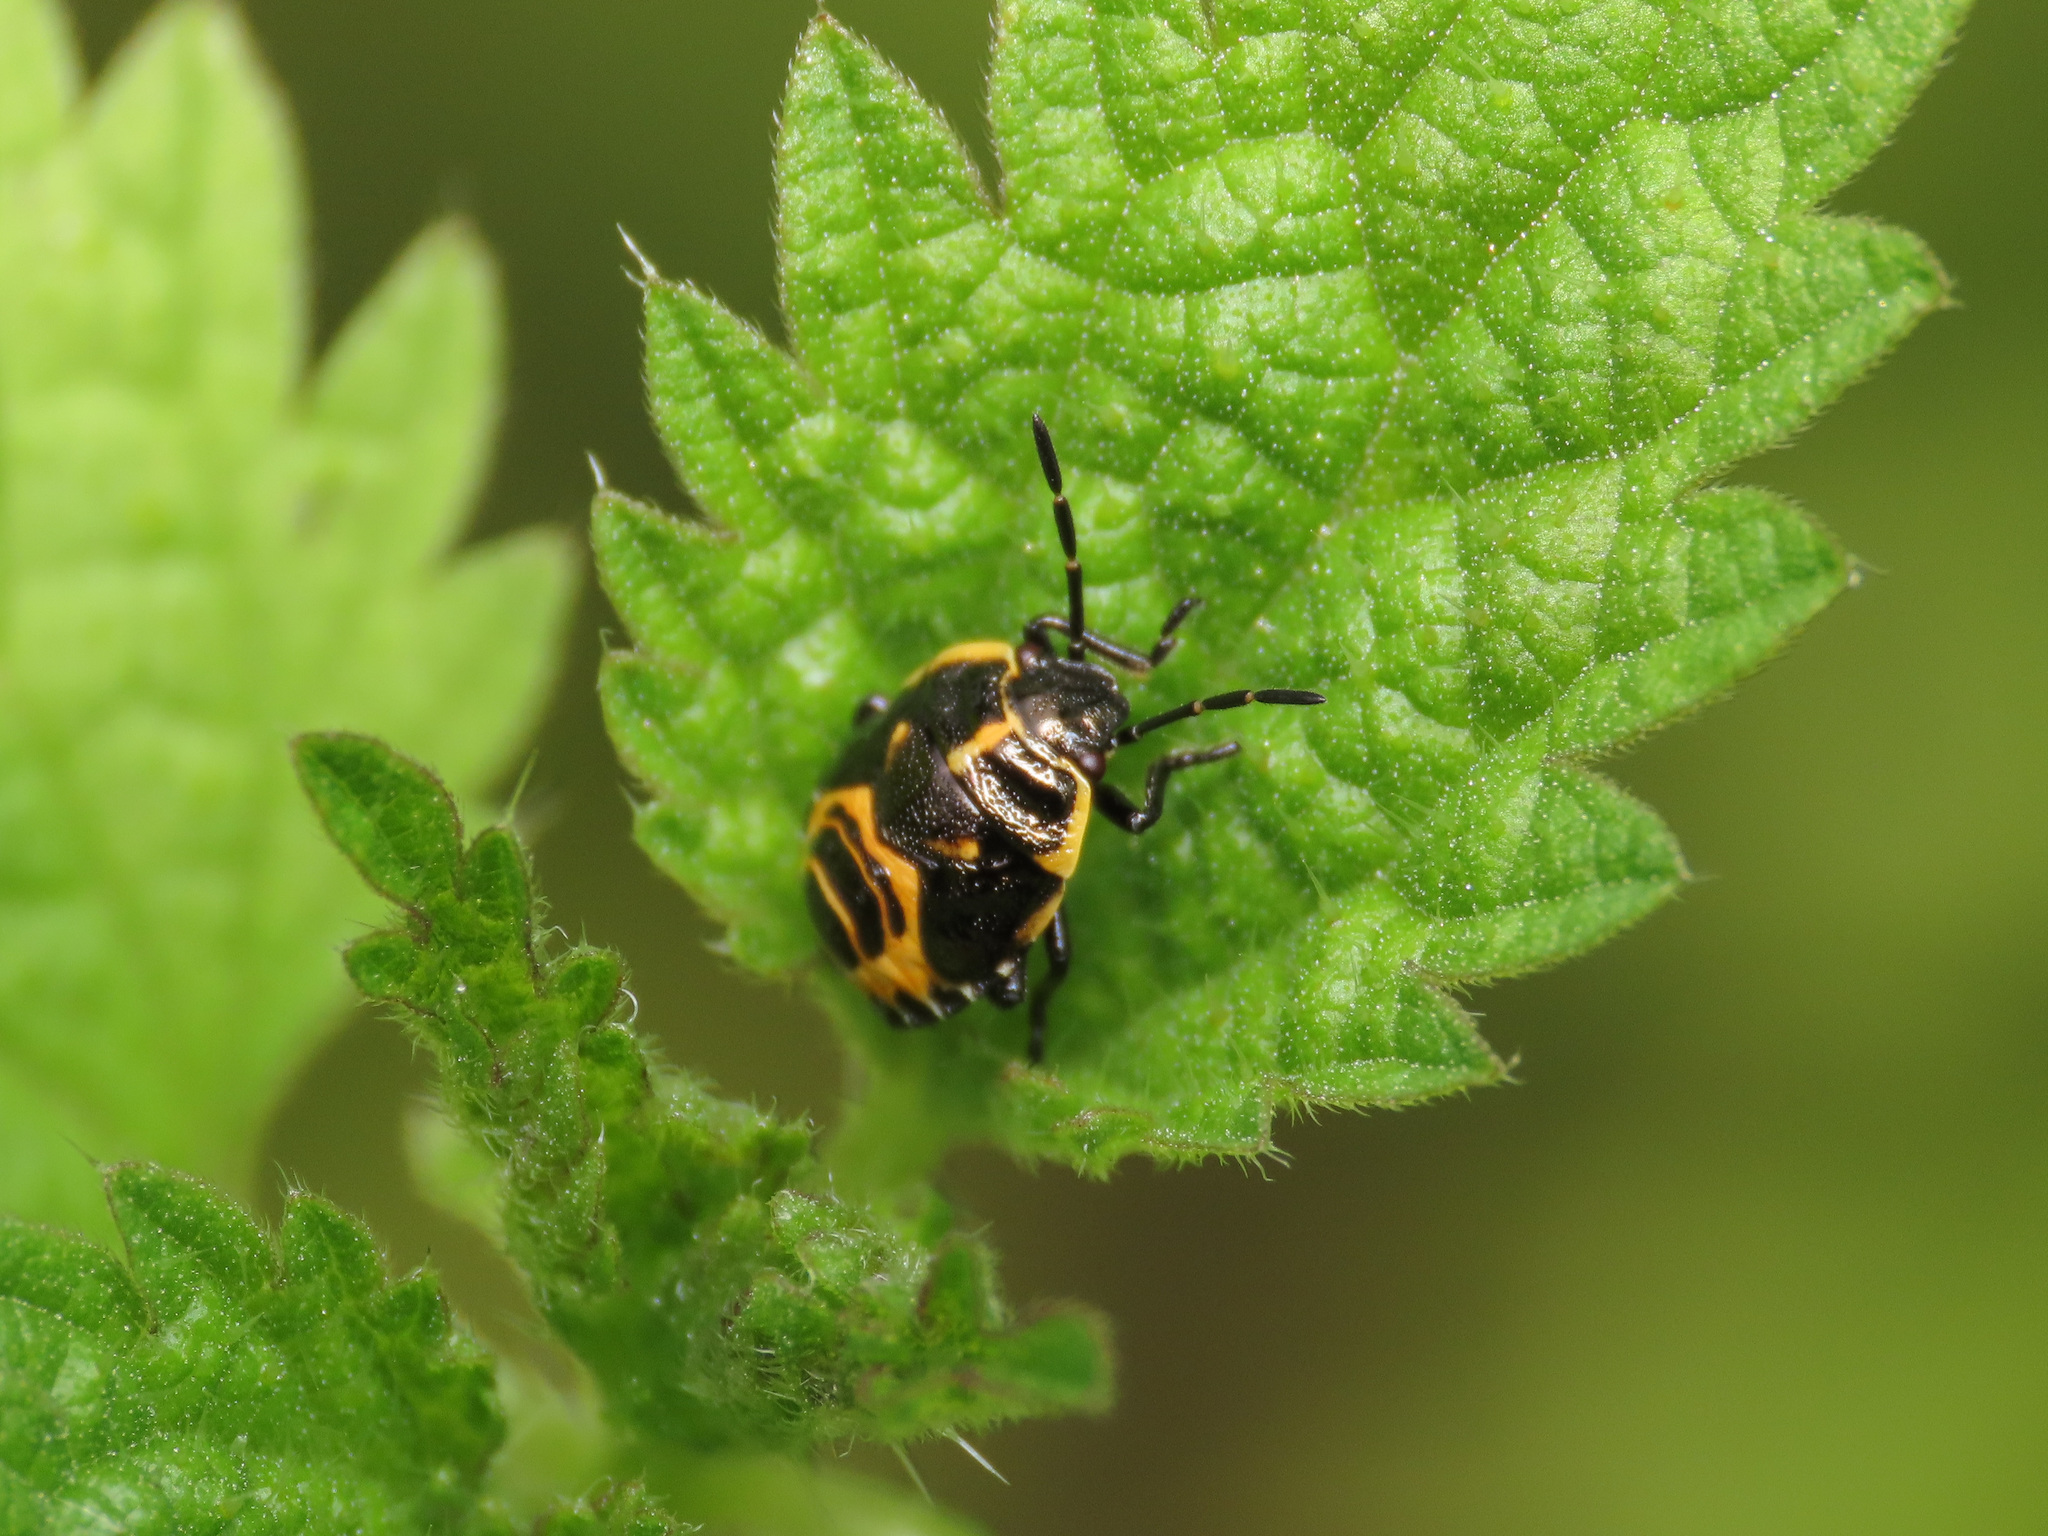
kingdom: Animalia
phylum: Arthropoda
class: Insecta
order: Hemiptera
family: Pentatomidae
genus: Eurydema
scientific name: Eurydema oleracea
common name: Cabbage bug
